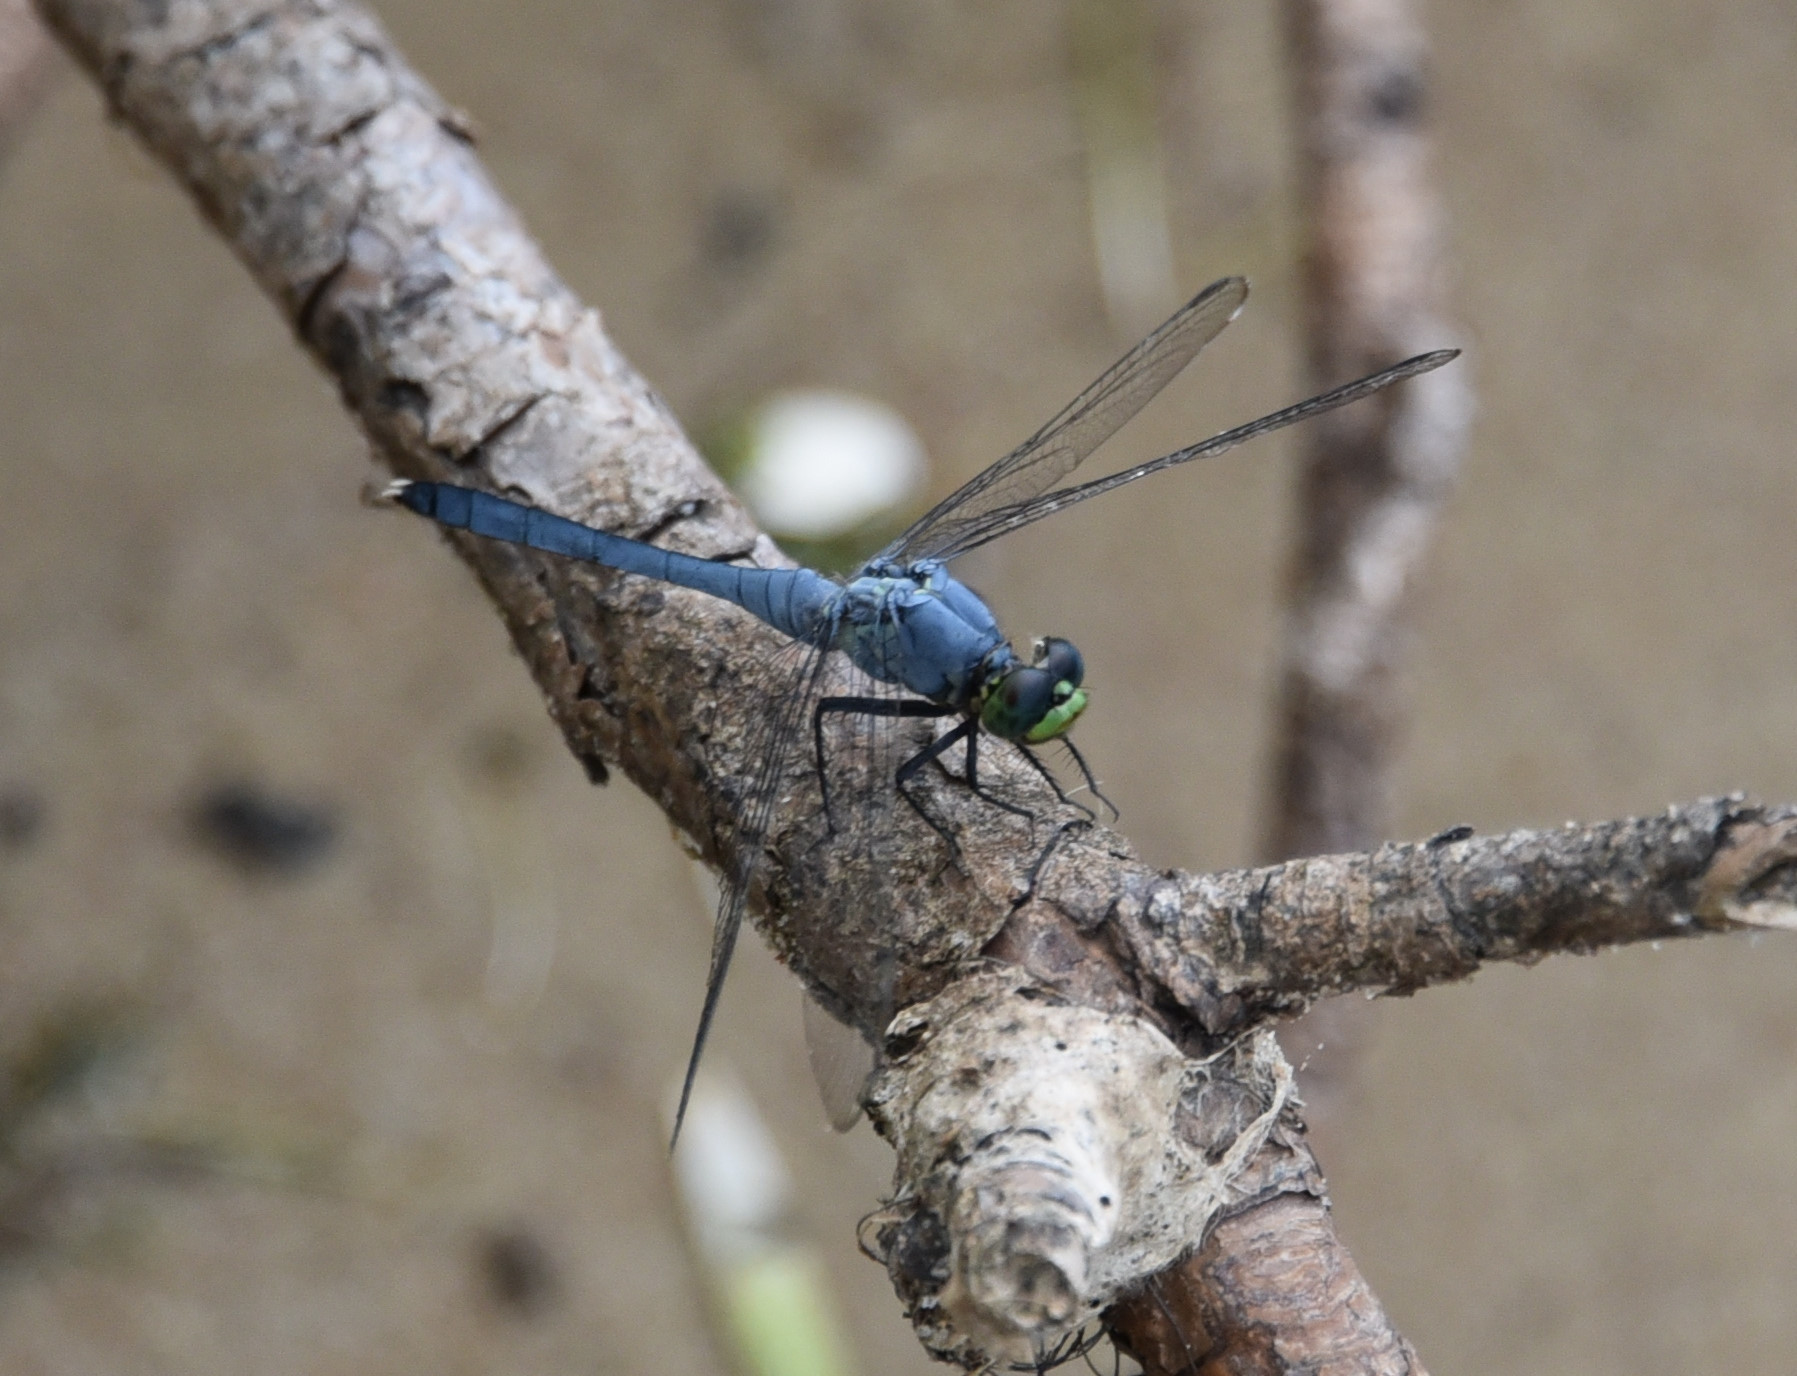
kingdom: Animalia
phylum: Arthropoda
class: Insecta
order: Odonata
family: Libellulidae
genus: Erythemis
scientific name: Erythemis simplicicollis
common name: Eastern pondhawk
